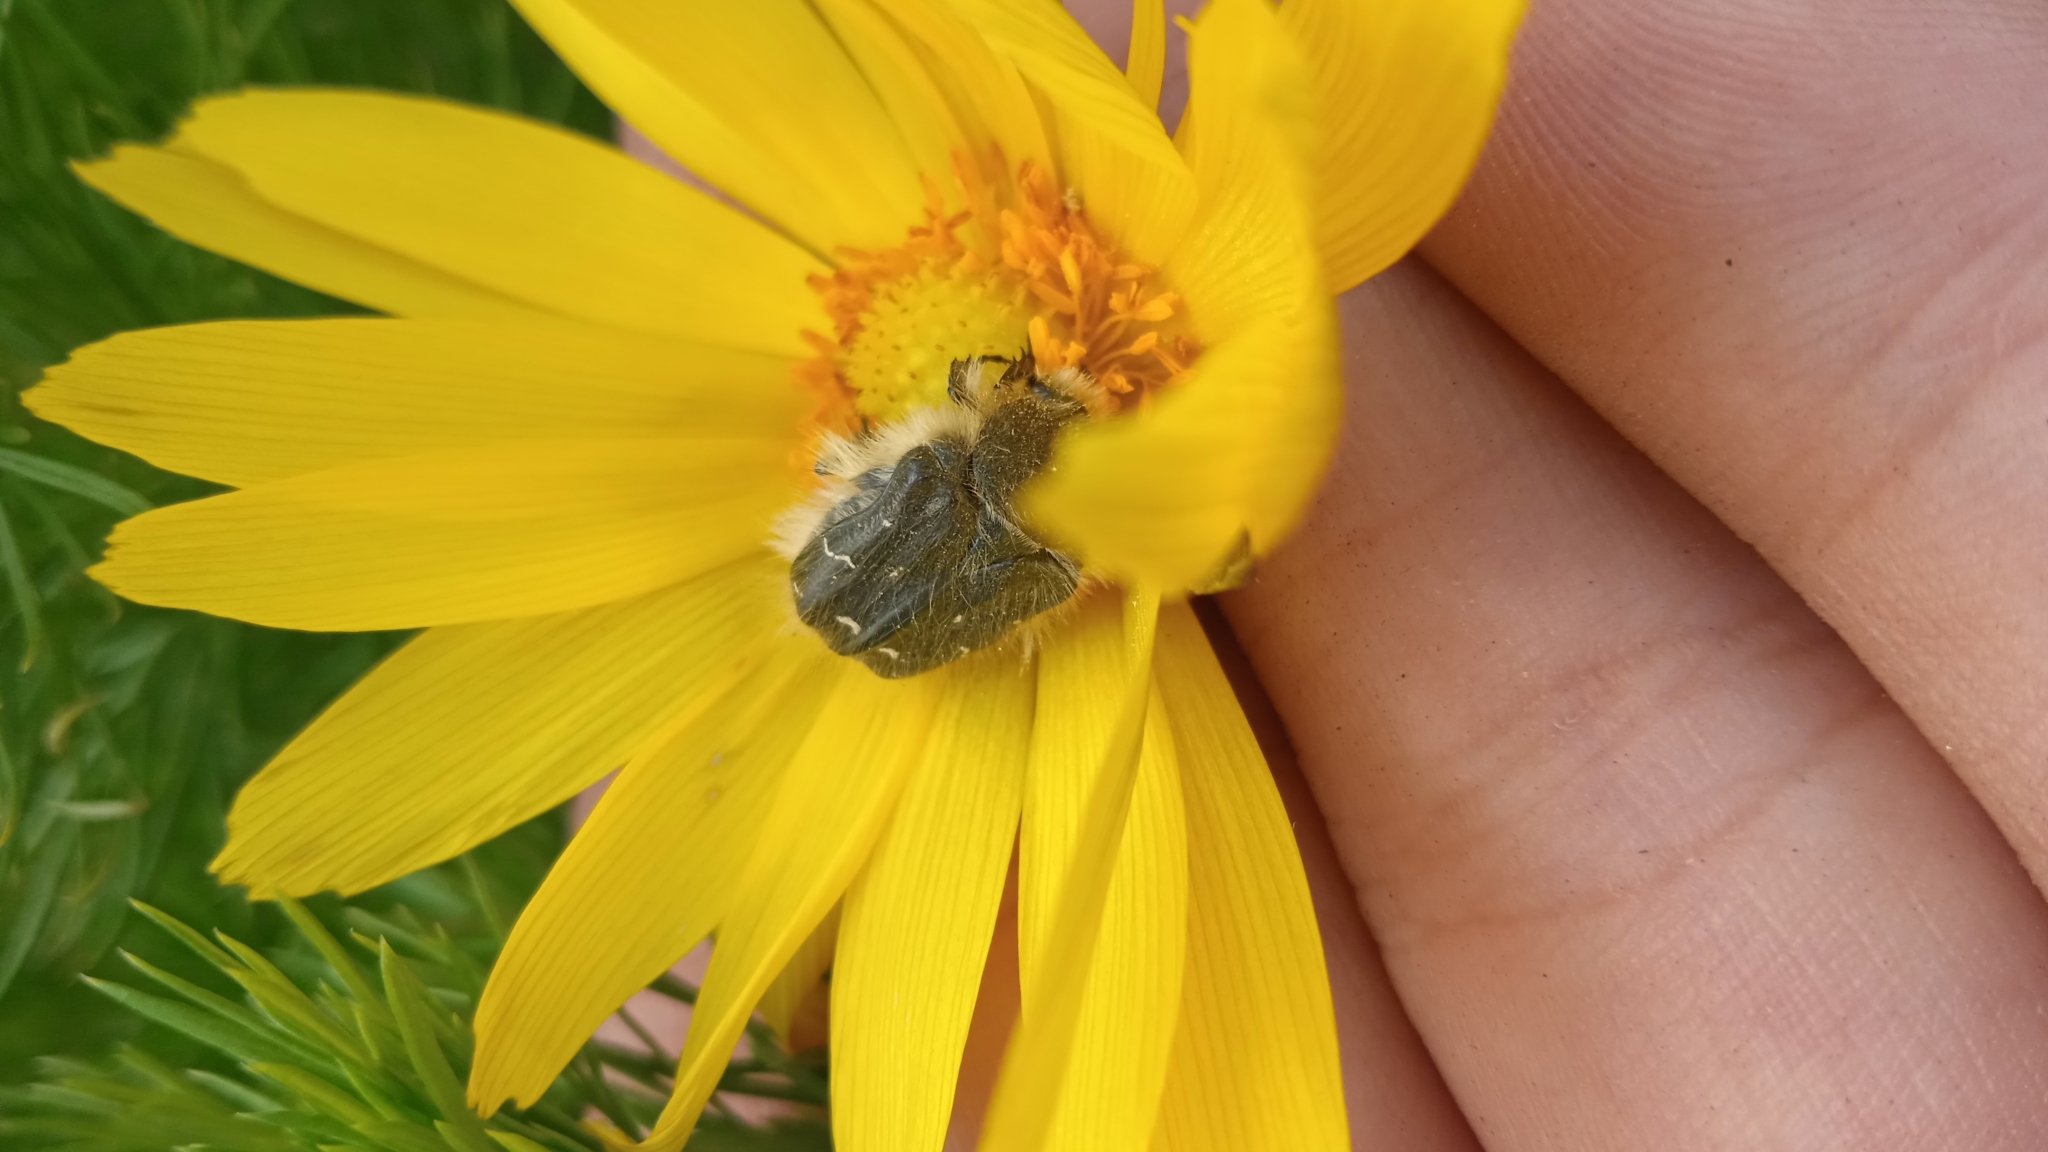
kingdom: Animalia
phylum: Arthropoda
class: Insecta
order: Coleoptera
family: Scarabaeidae
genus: Tropinota
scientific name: Tropinota hirta
